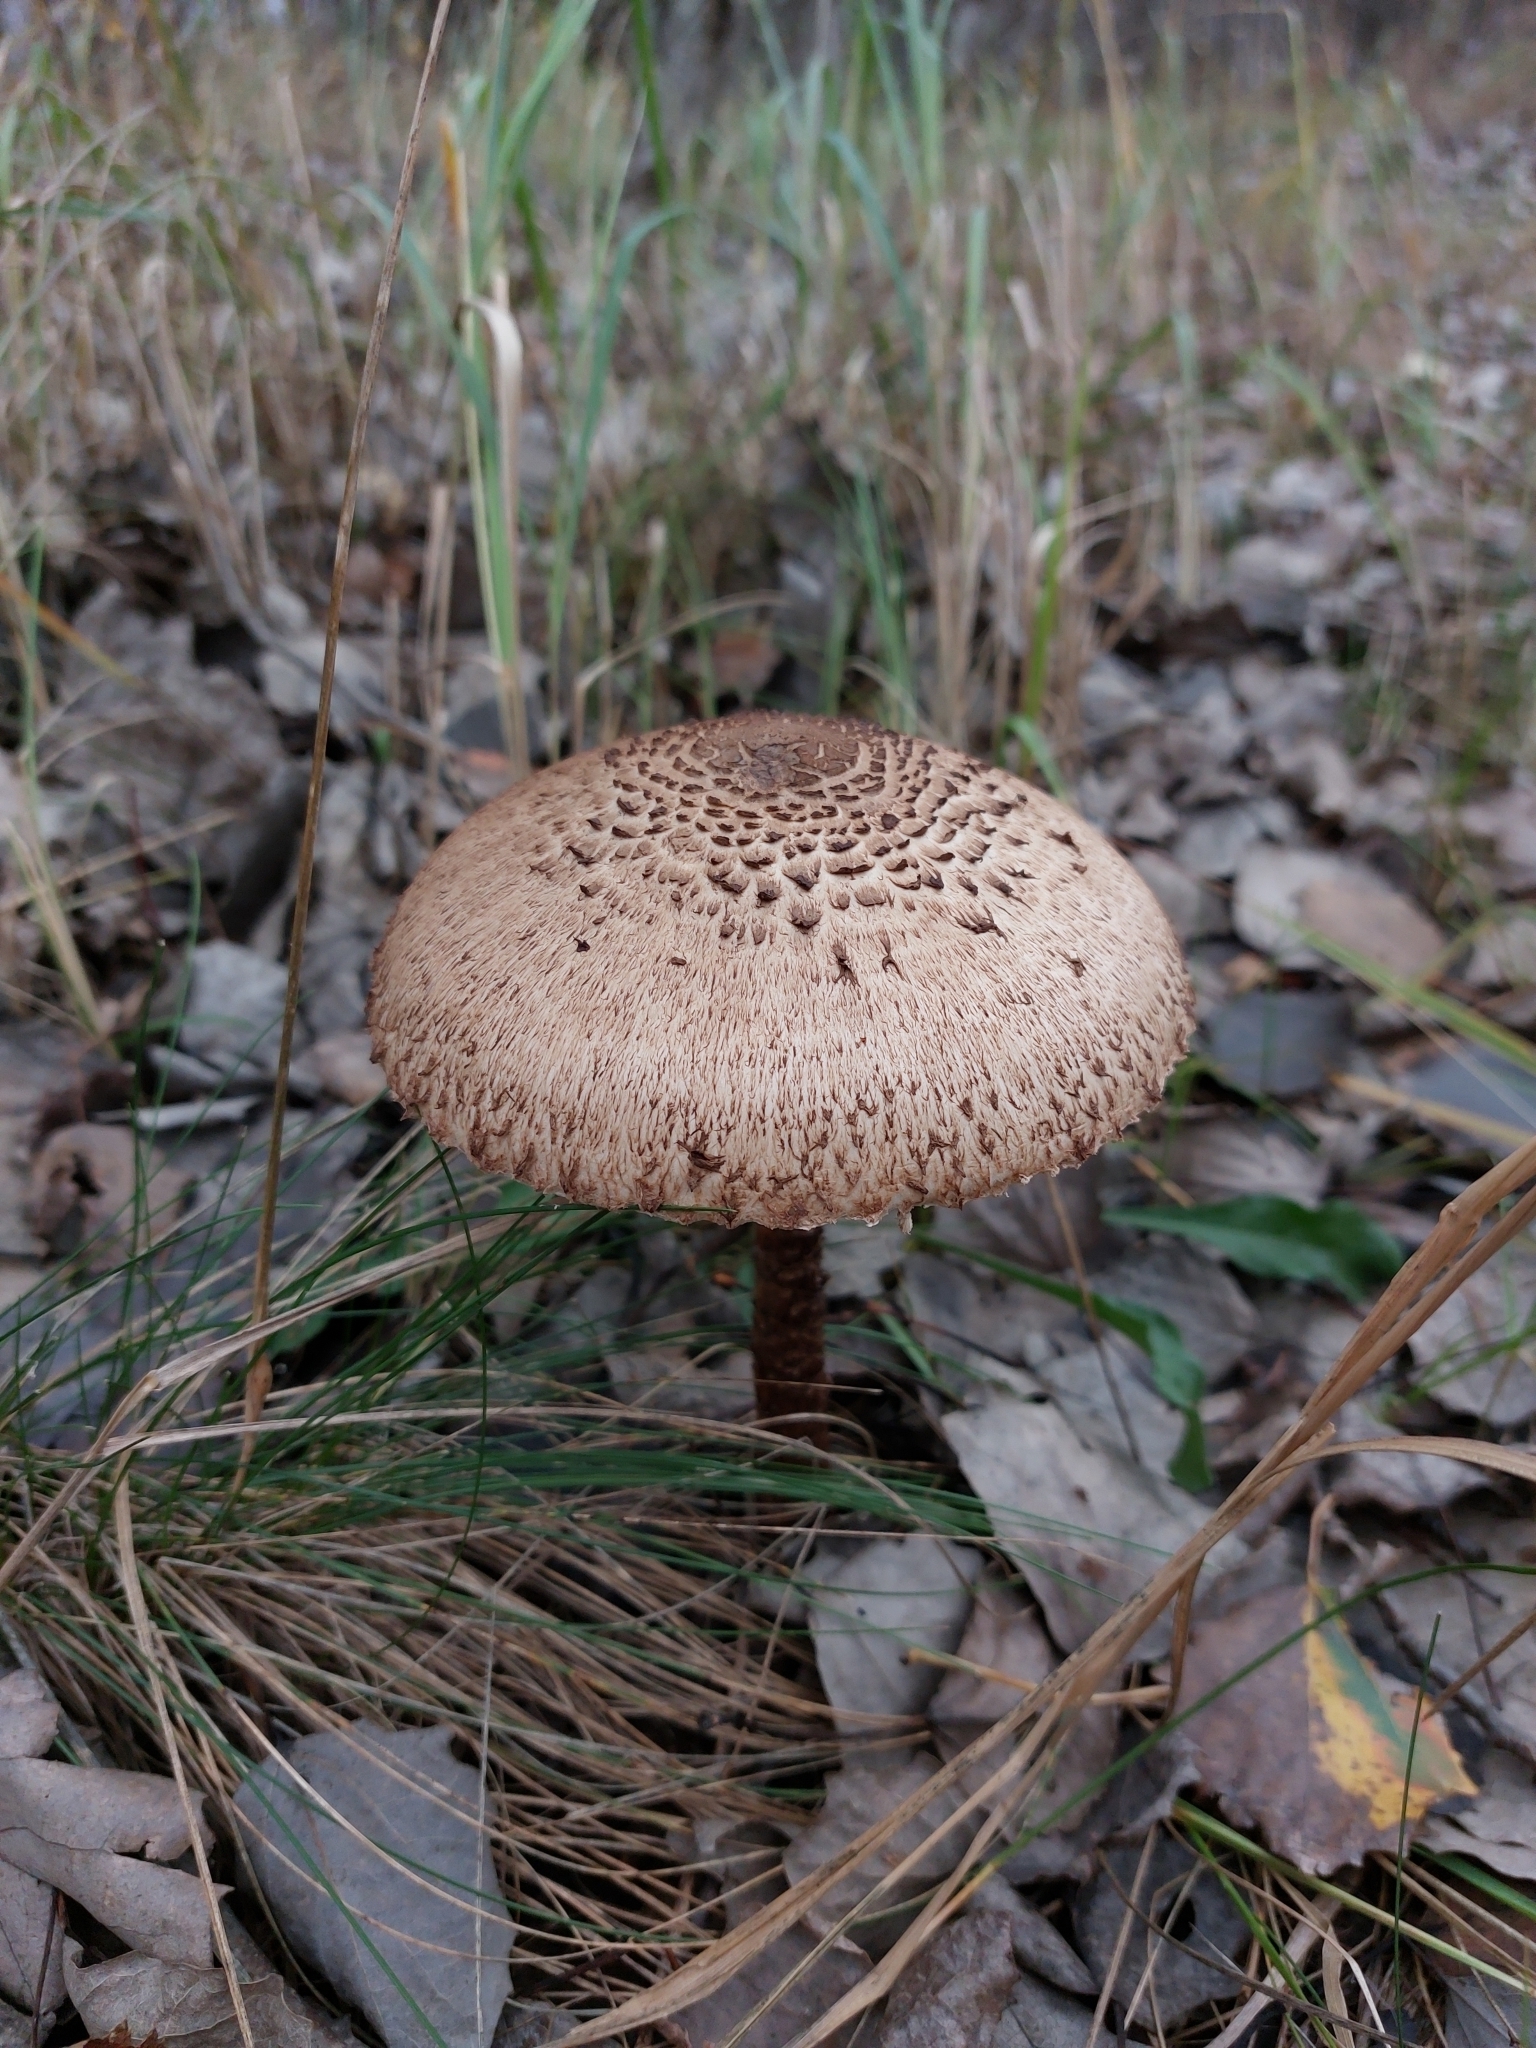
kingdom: Fungi
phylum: Basidiomycota
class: Agaricomycetes
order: Agaricales
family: Agaricaceae
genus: Macrolepiota
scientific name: Macrolepiota procera
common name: Parasol
